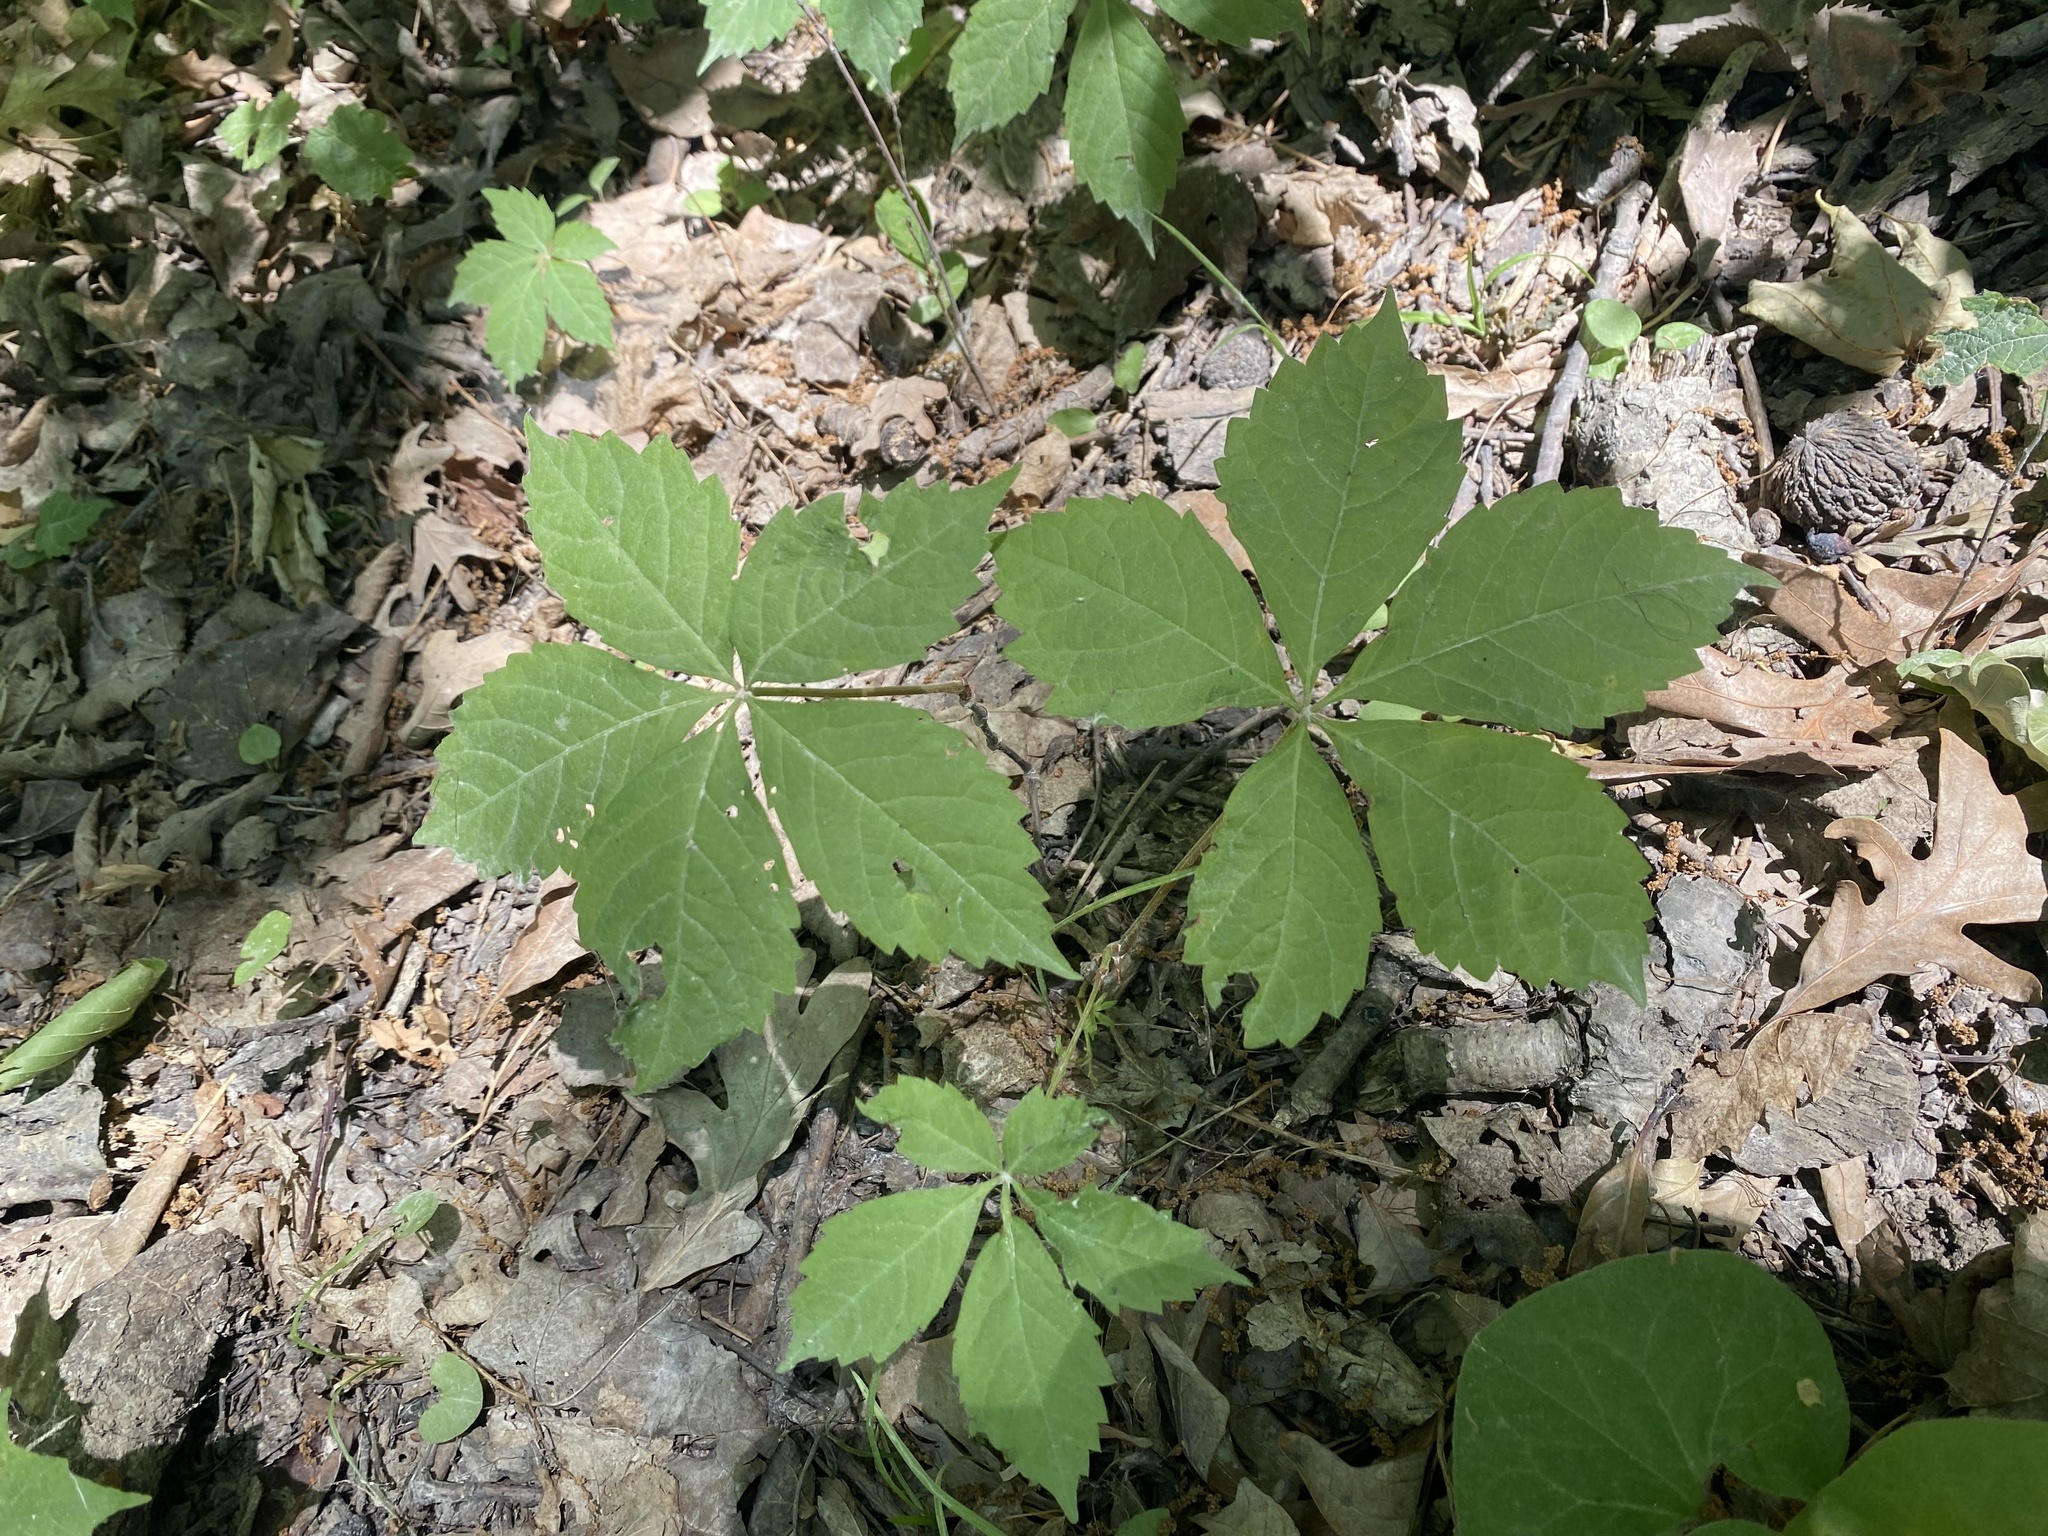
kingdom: Plantae
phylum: Tracheophyta
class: Magnoliopsida
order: Vitales
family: Vitaceae
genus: Parthenocissus
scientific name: Parthenocissus quinquefolia
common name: Virginia-creeper
